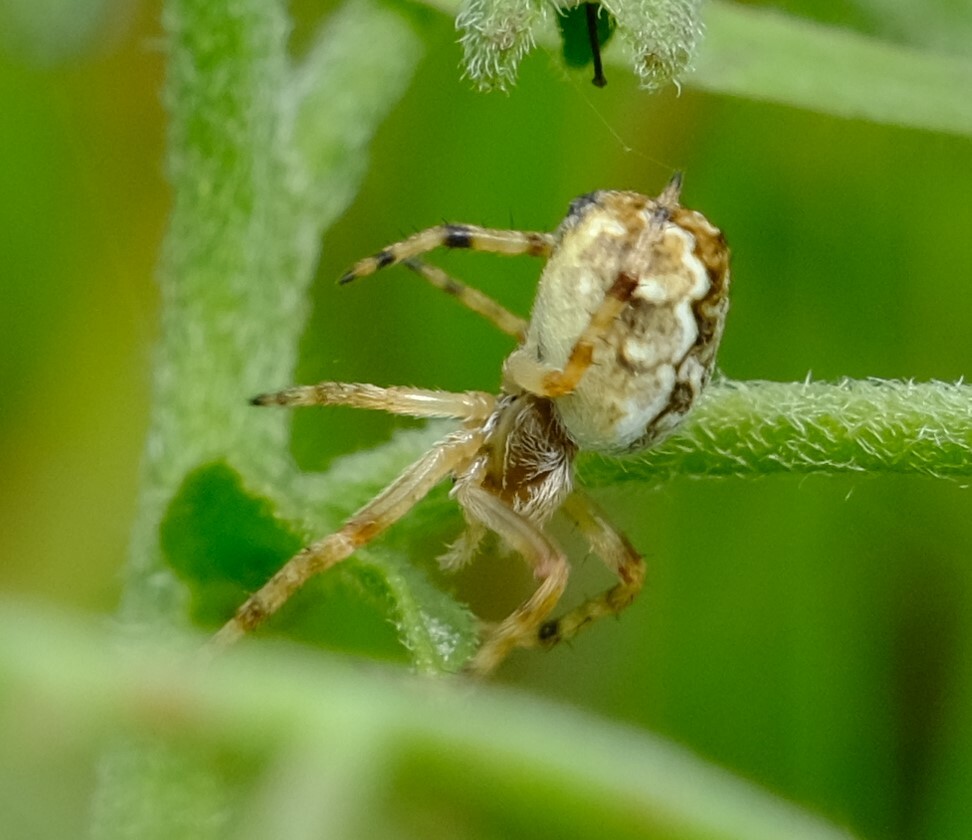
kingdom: Animalia
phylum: Arthropoda
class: Arachnida
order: Araneae
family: Araneidae
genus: Salsa
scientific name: Salsa
